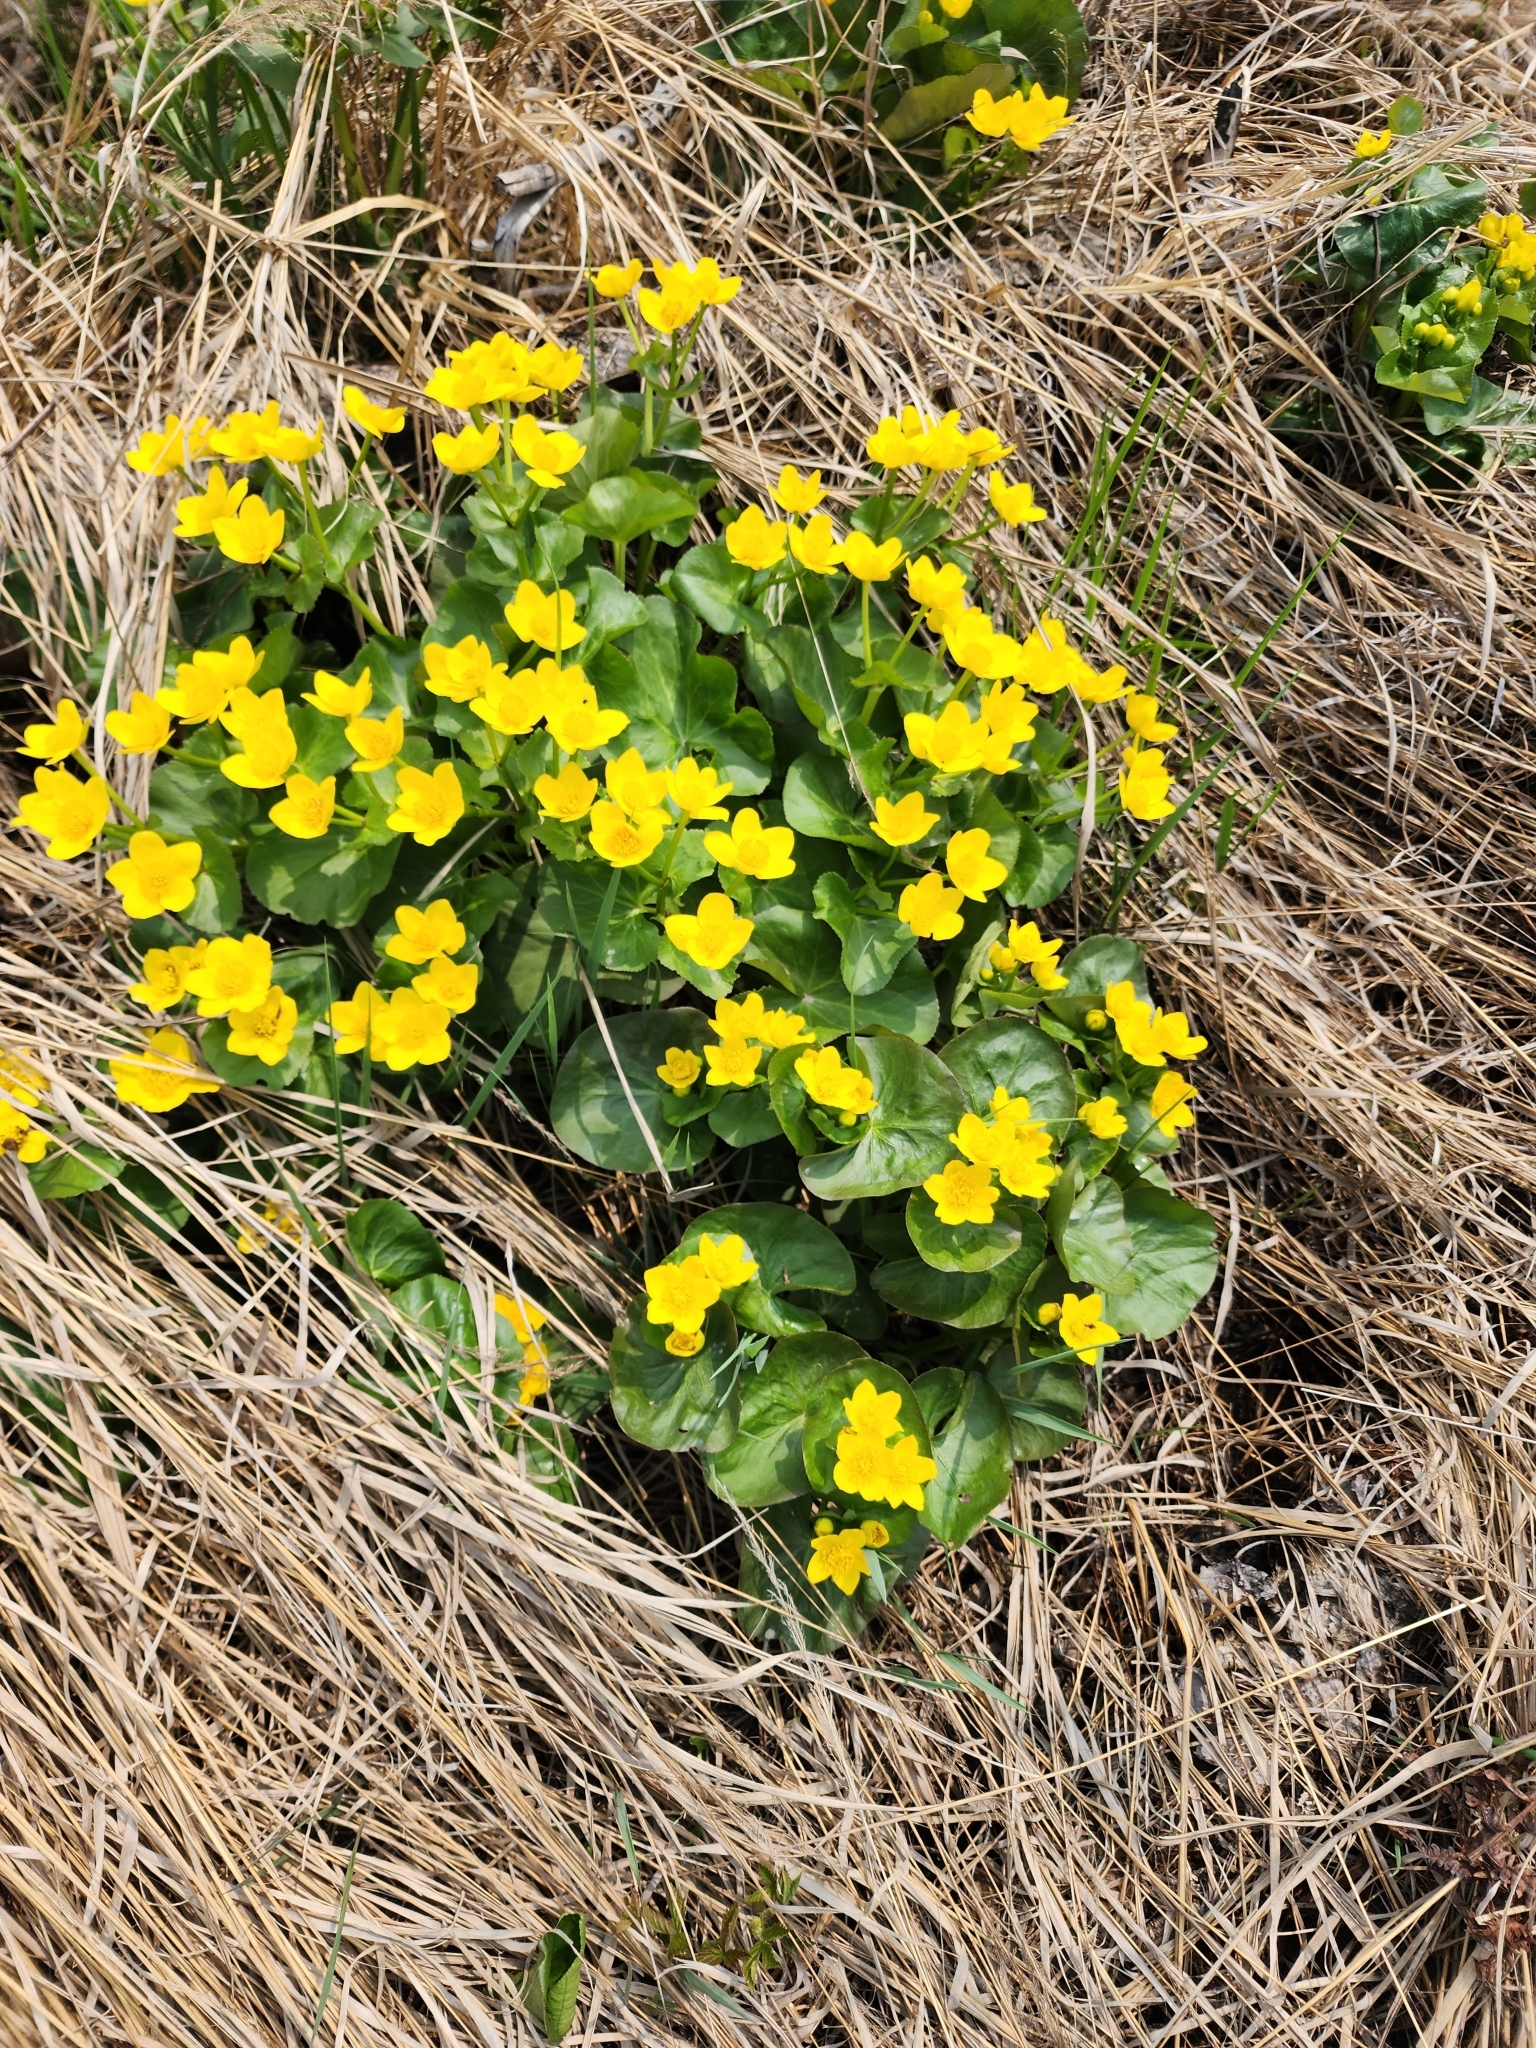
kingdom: Plantae
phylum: Tracheophyta
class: Magnoliopsida
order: Ranunculales
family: Ranunculaceae
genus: Caltha
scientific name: Caltha palustris
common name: Marsh marigold
